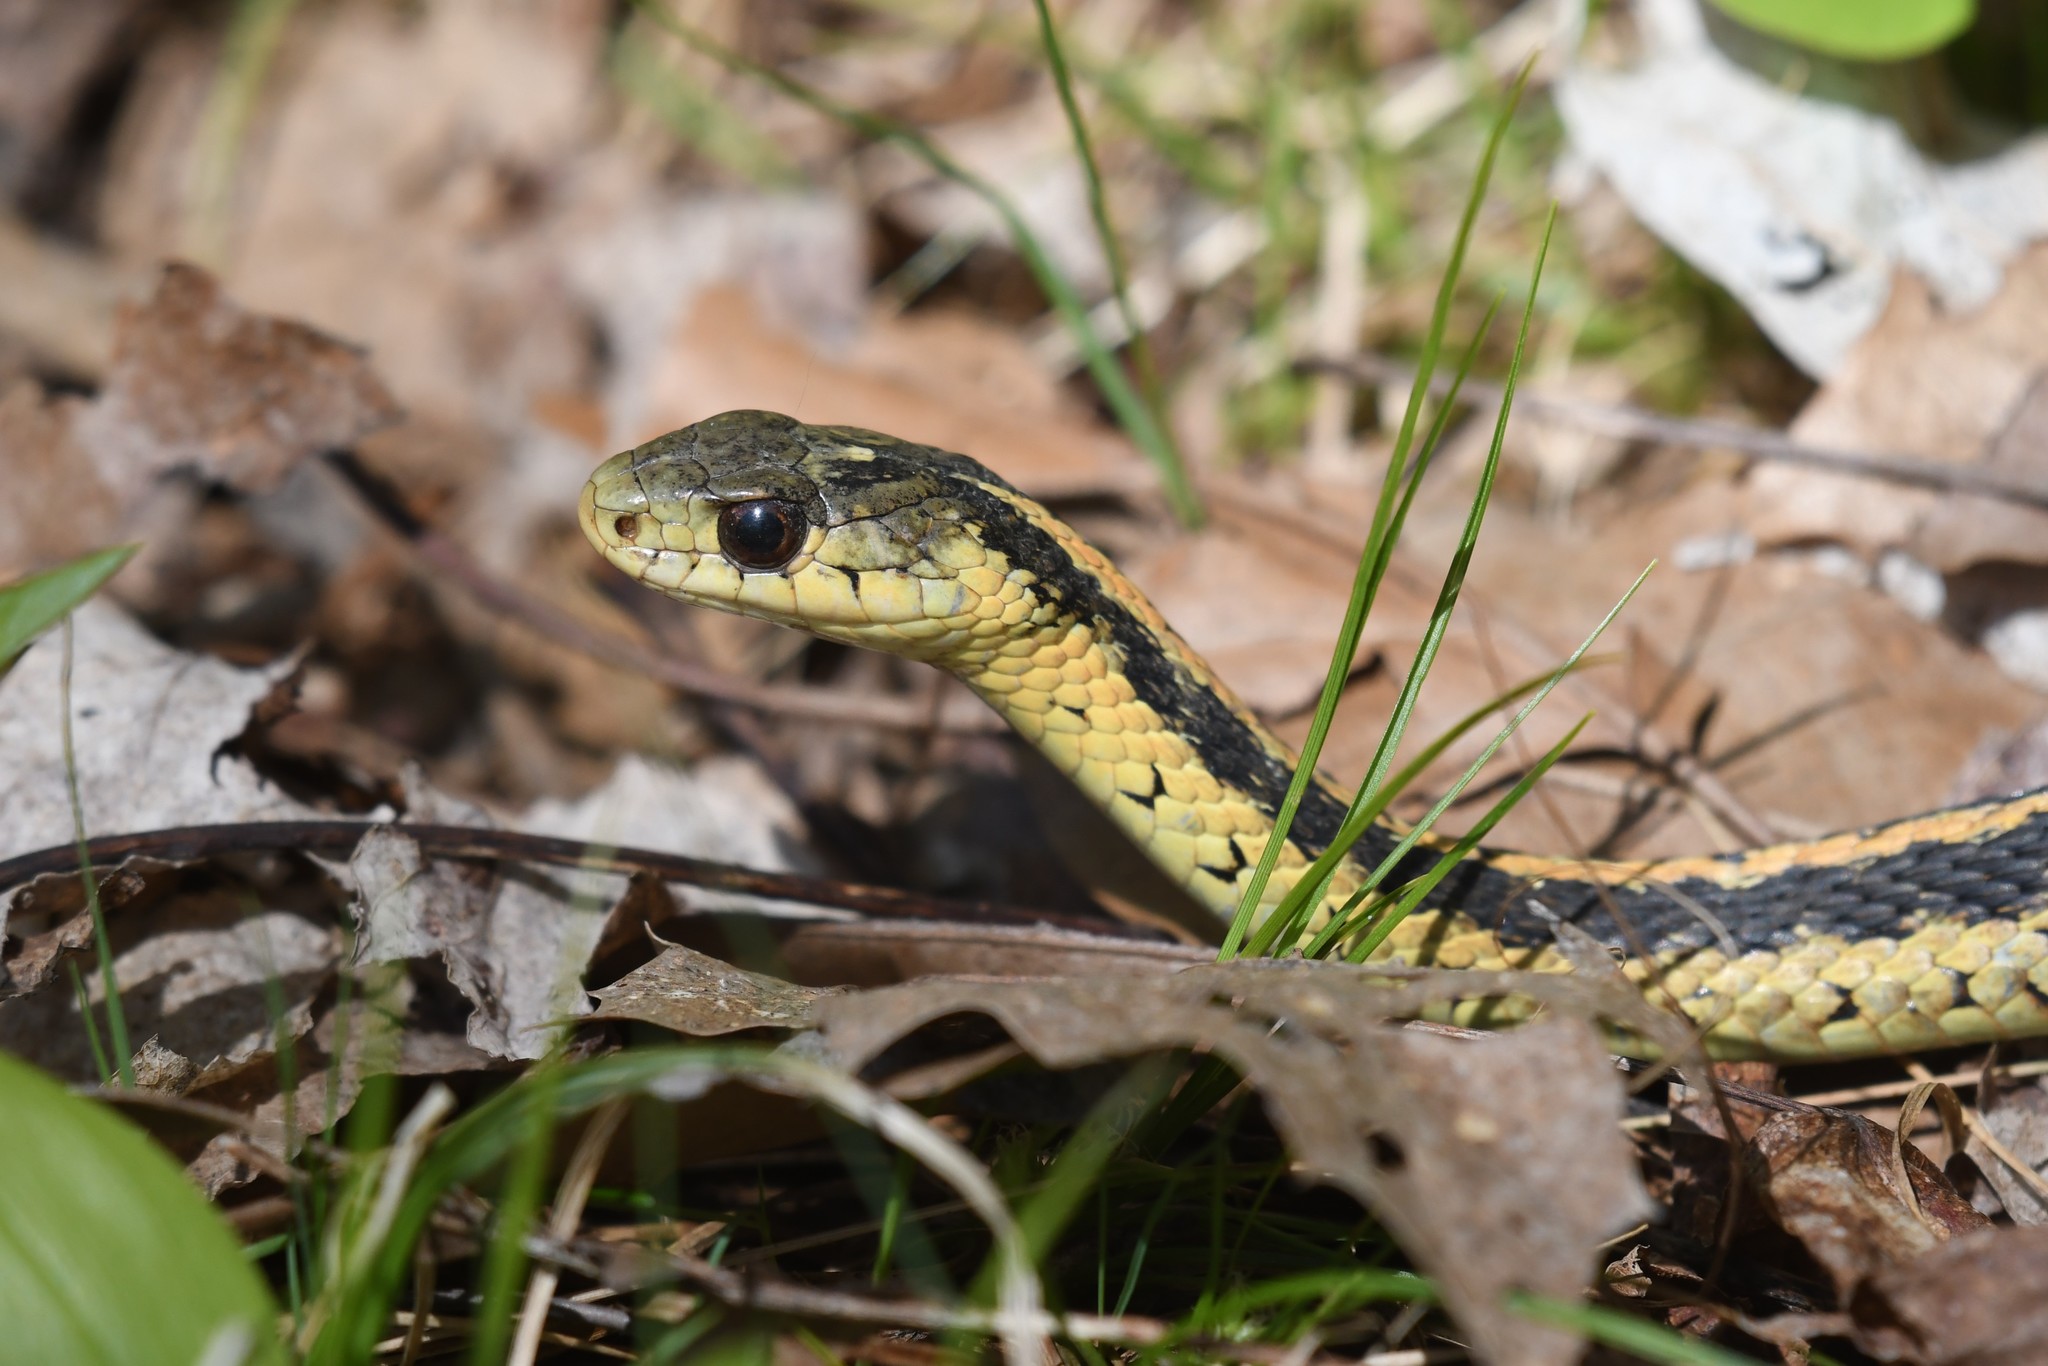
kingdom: Animalia
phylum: Chordata
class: Squamata
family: Colubridae
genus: Thamnophis
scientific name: Thamnophis sirtalis
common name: Common garter snake
